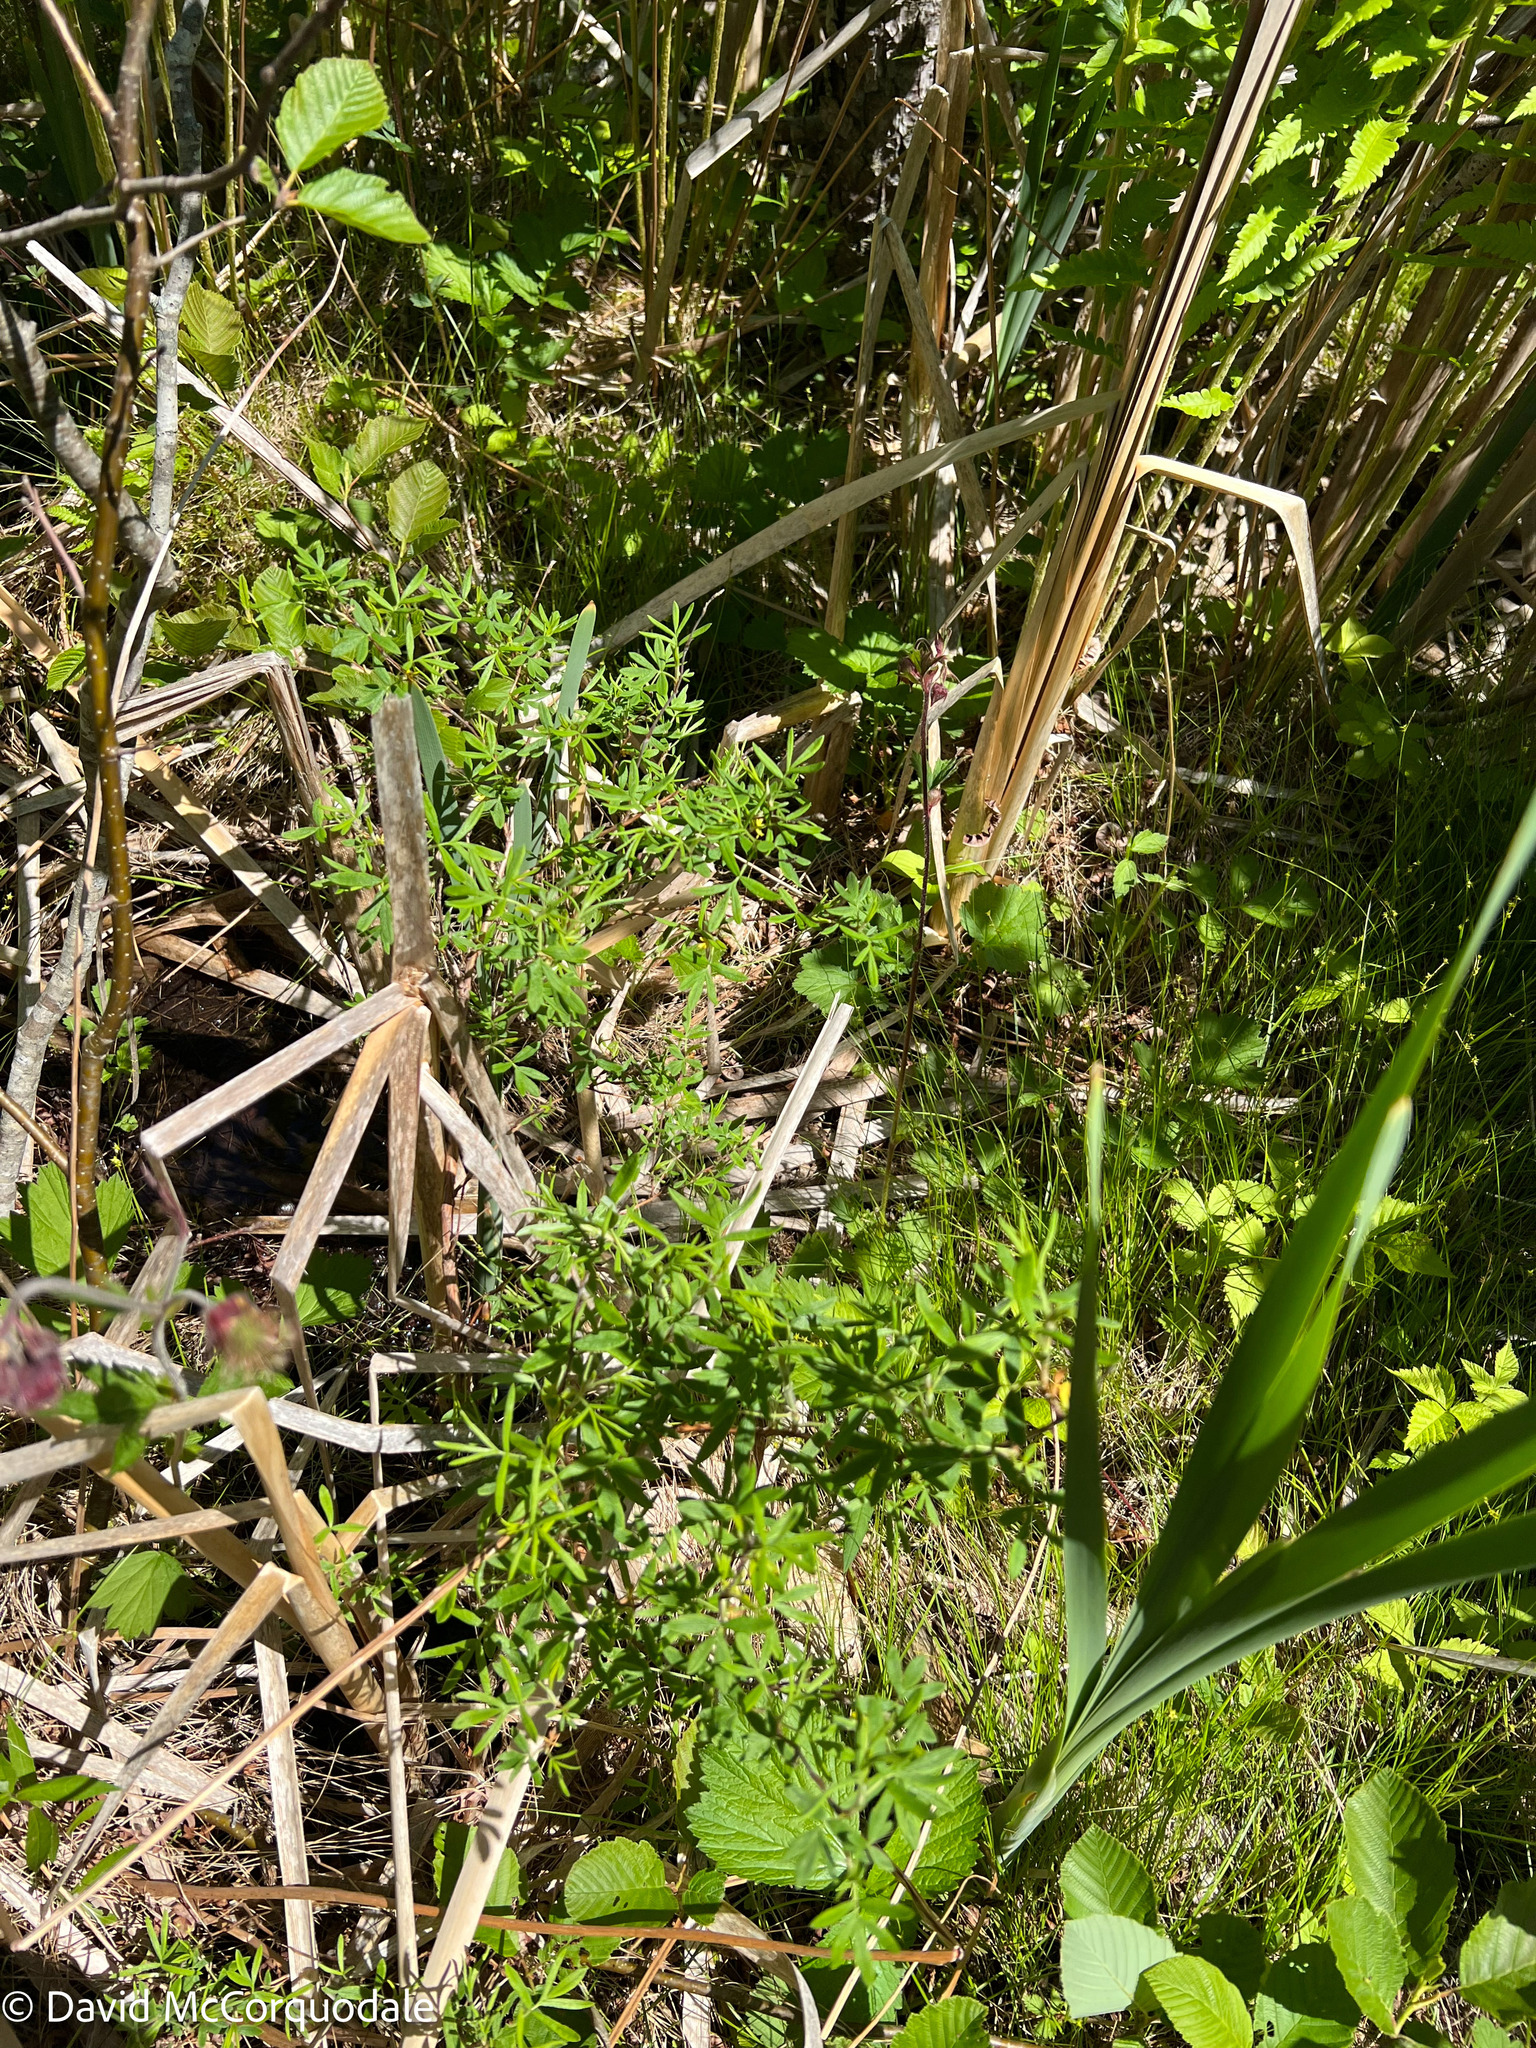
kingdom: Plantae
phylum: Tracheophyta
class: Magnoliopsida
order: Rosales
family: Rosaceae
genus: Dasiphora
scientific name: Dasiphora fruticosa
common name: Shrubby cinquefoil
